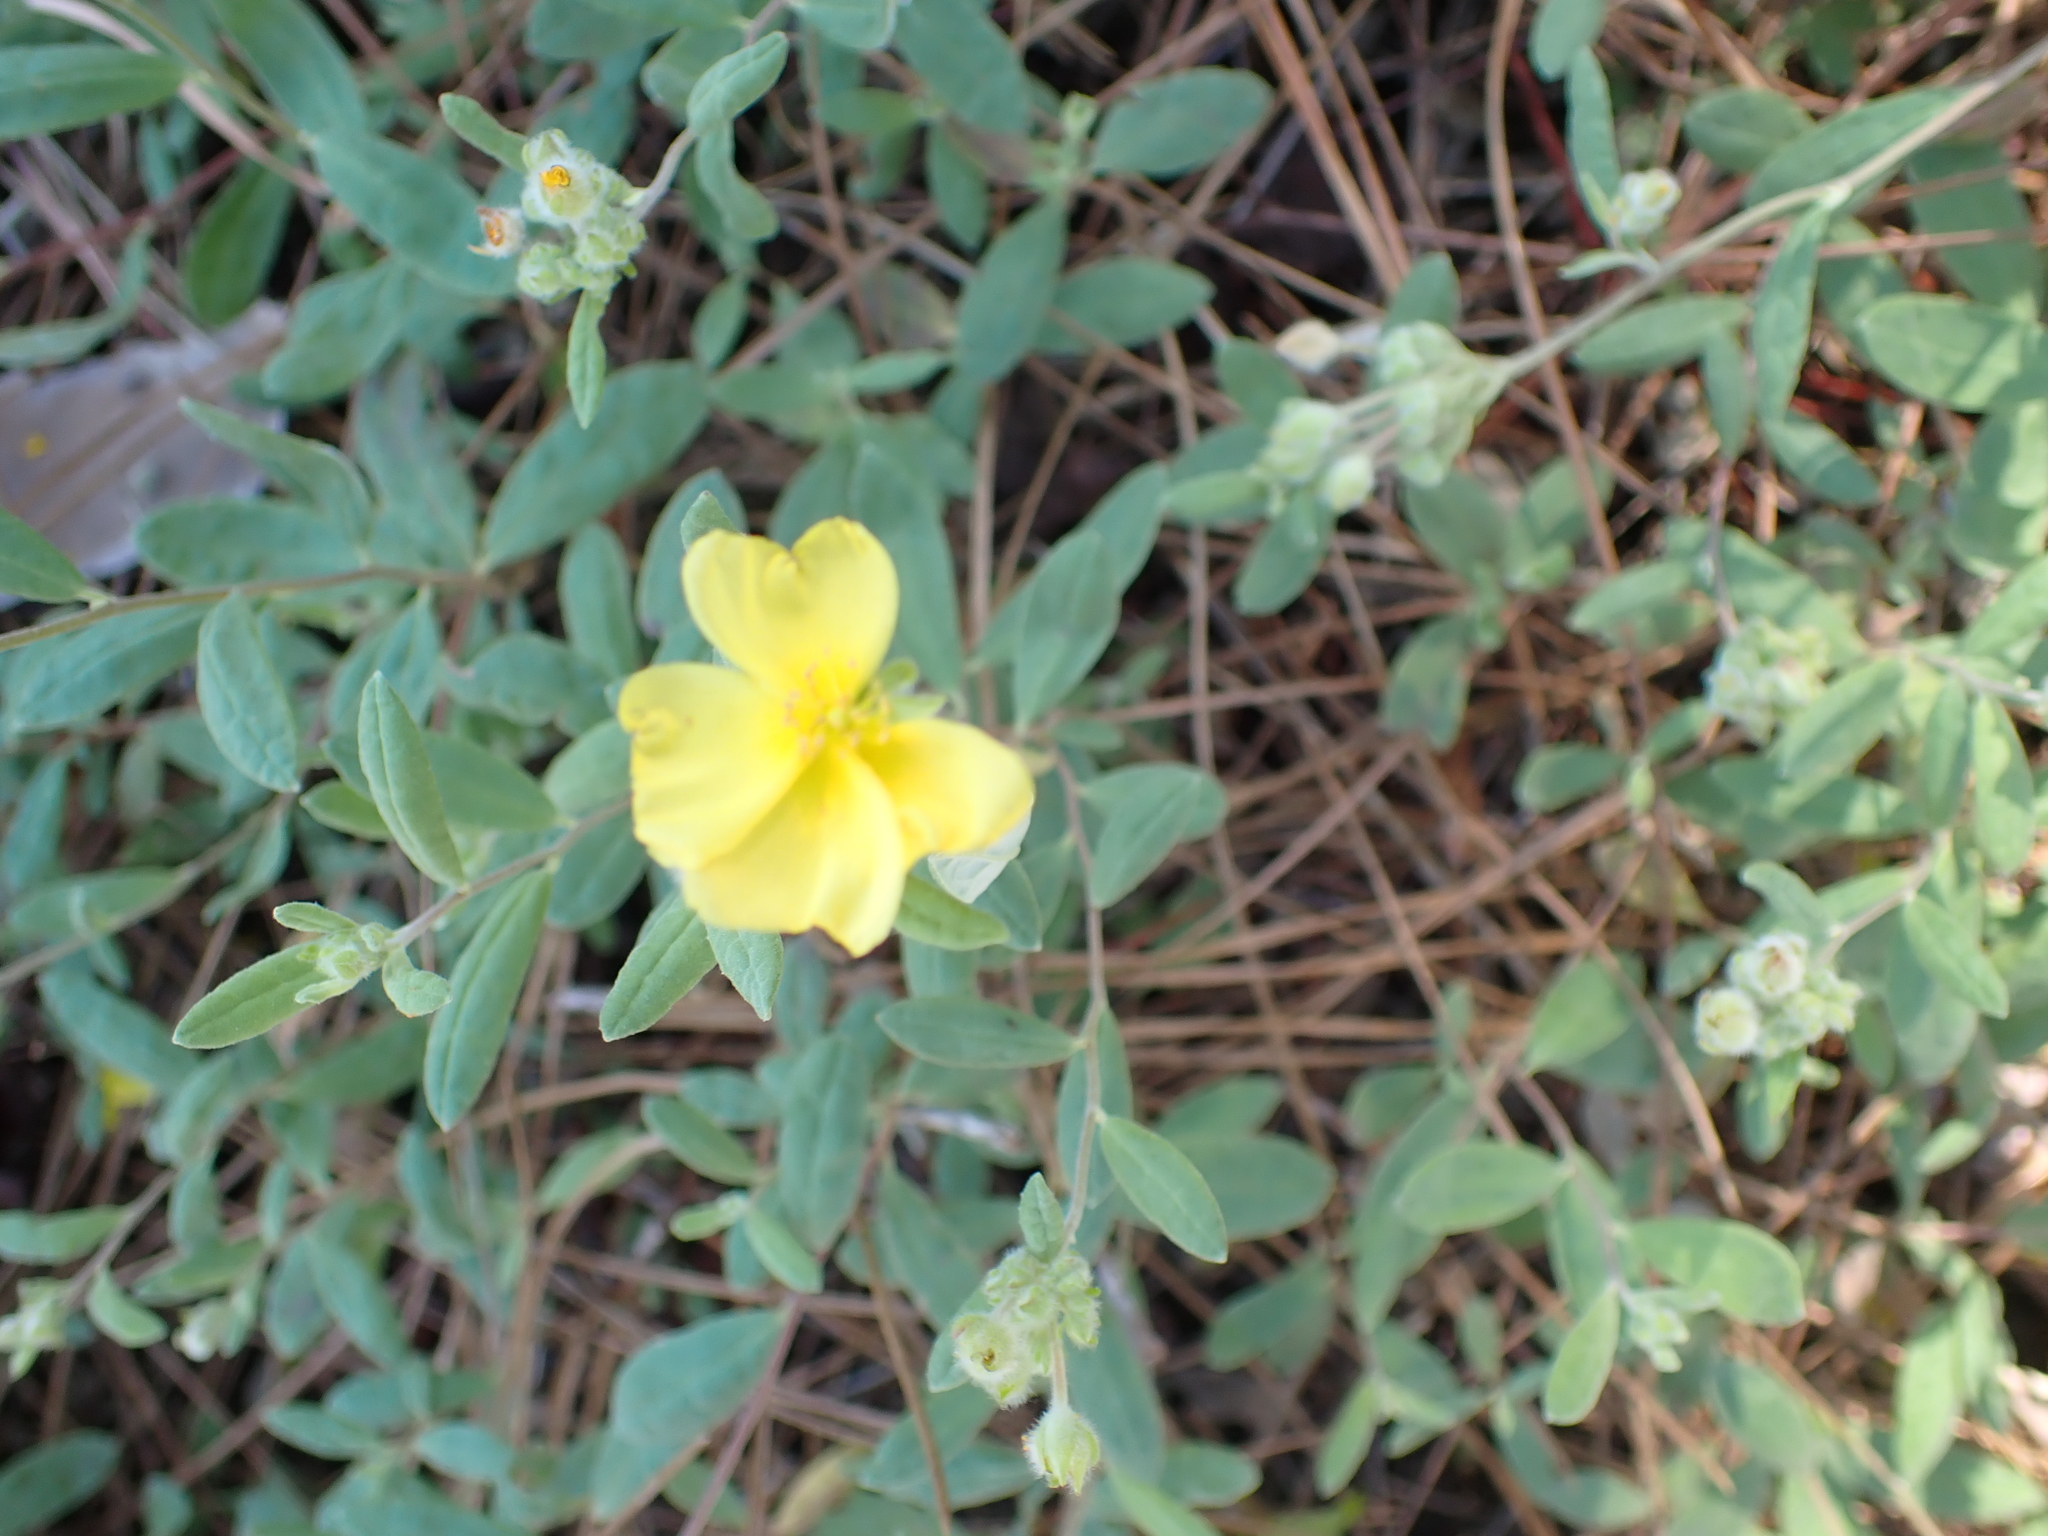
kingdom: Plantae
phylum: Tracheophyta
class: Magnoliopsida
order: Malvales
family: Cistaceae
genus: Crocanthemum
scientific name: Crocanthemum corymbosum
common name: Pinebarren sun-rose
